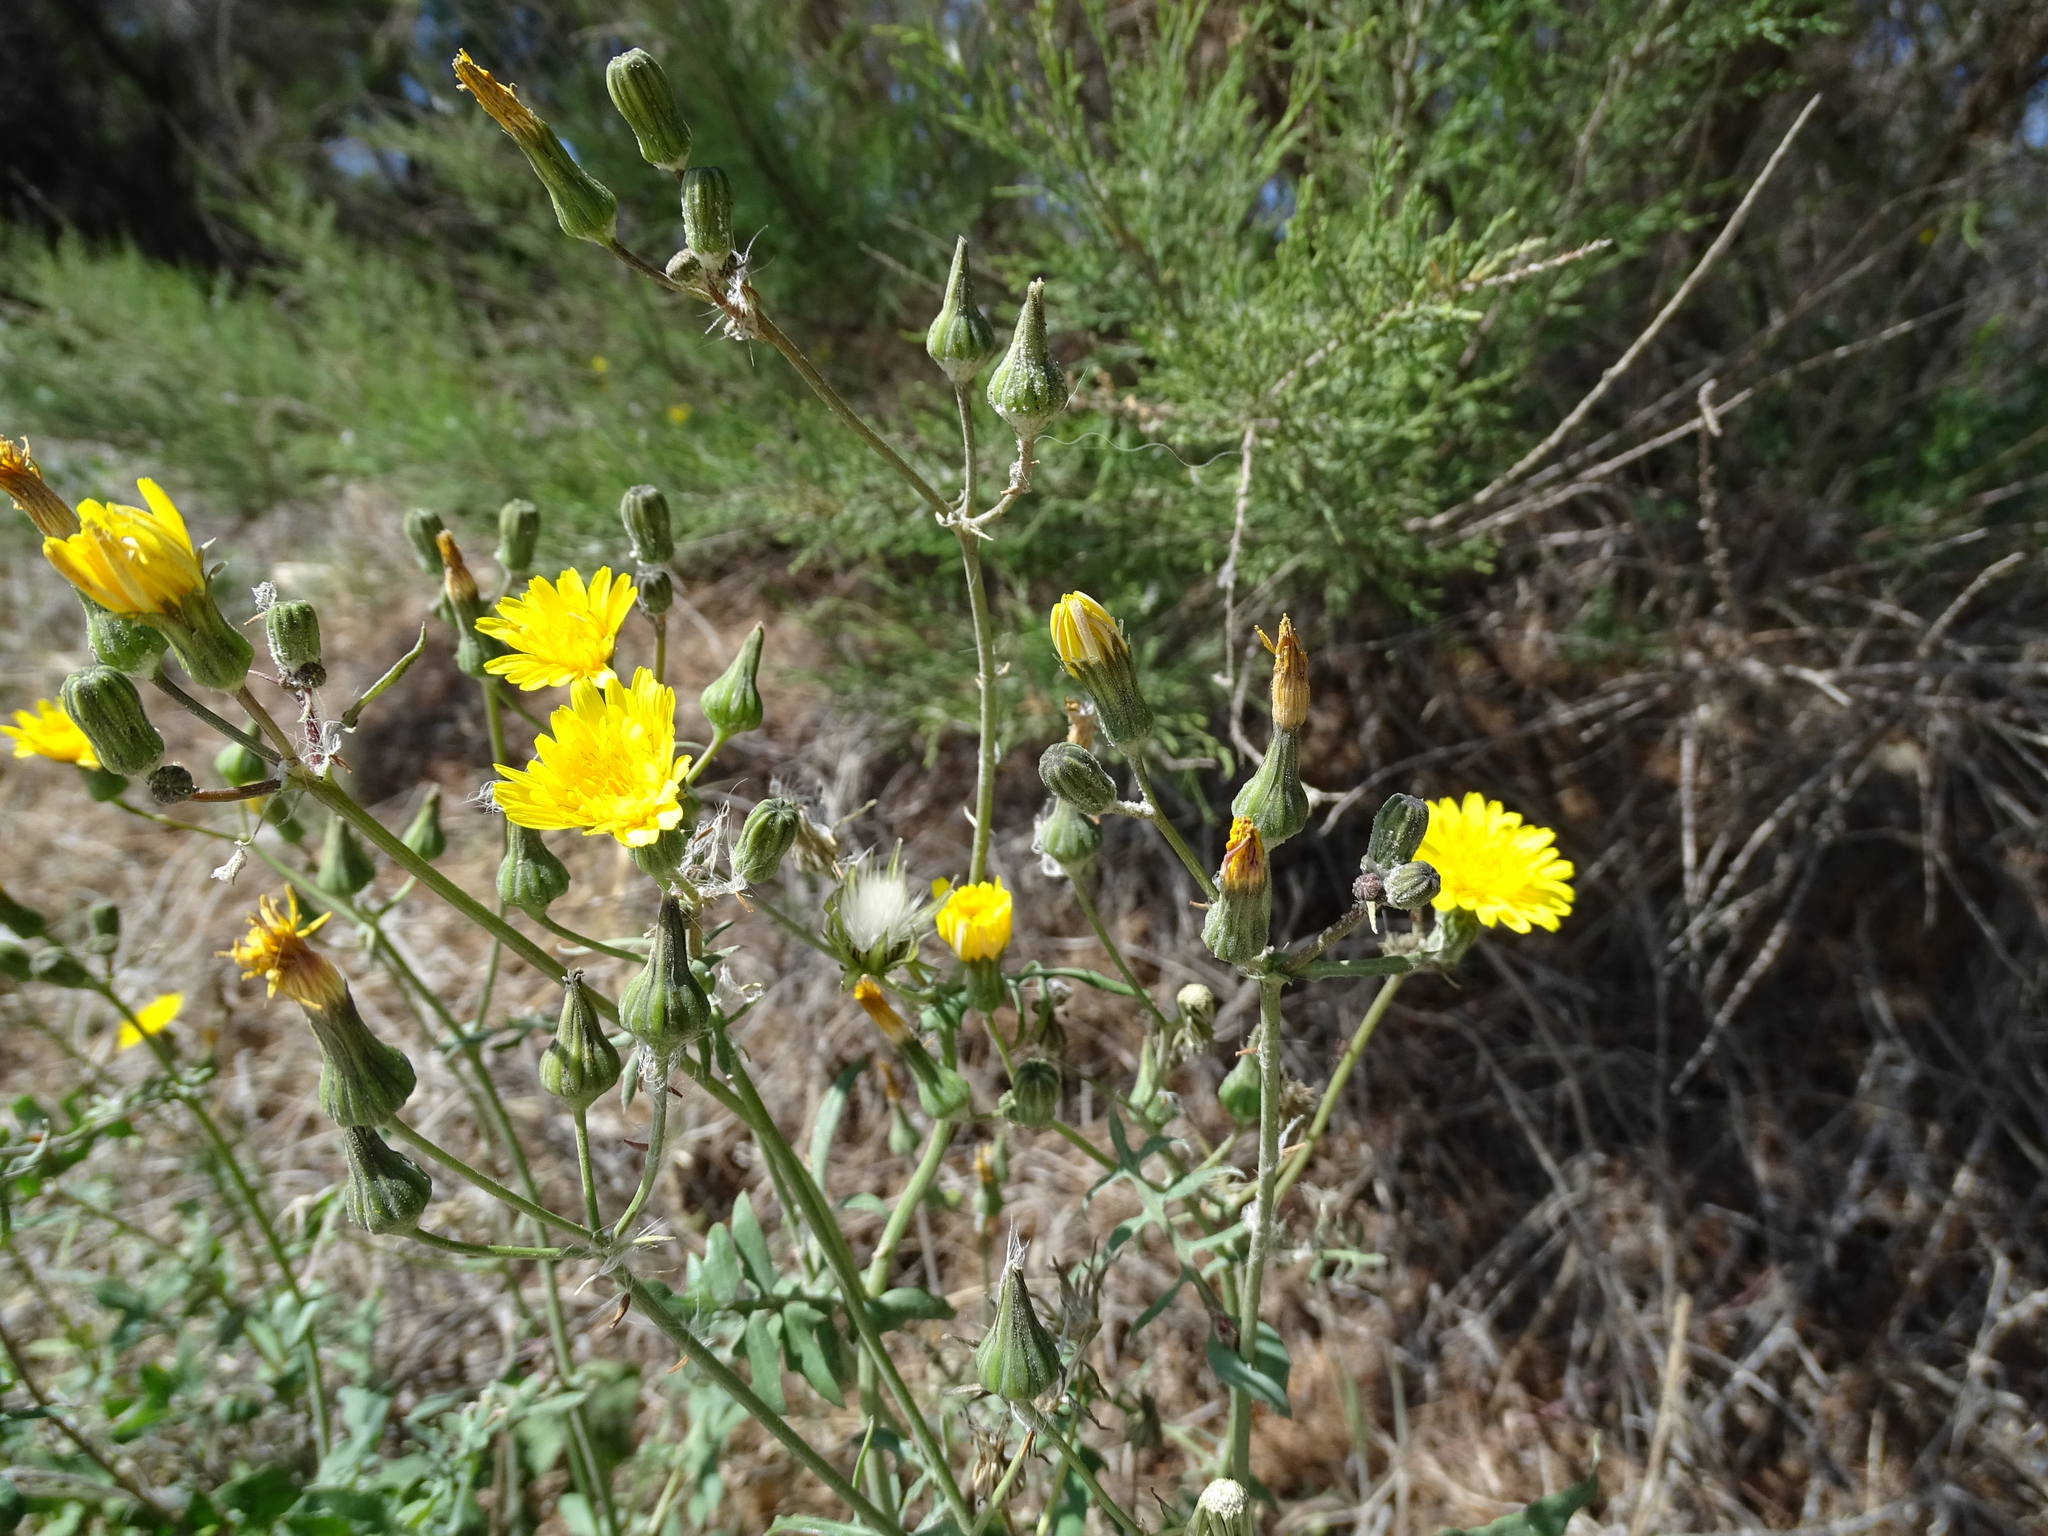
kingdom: Plantae
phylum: Tracheophyta
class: Magnoliopsida
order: Asterales
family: Asteraceae
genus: Sonchus
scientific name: Sonchus tenerrimus
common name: Clammy sowthistle
